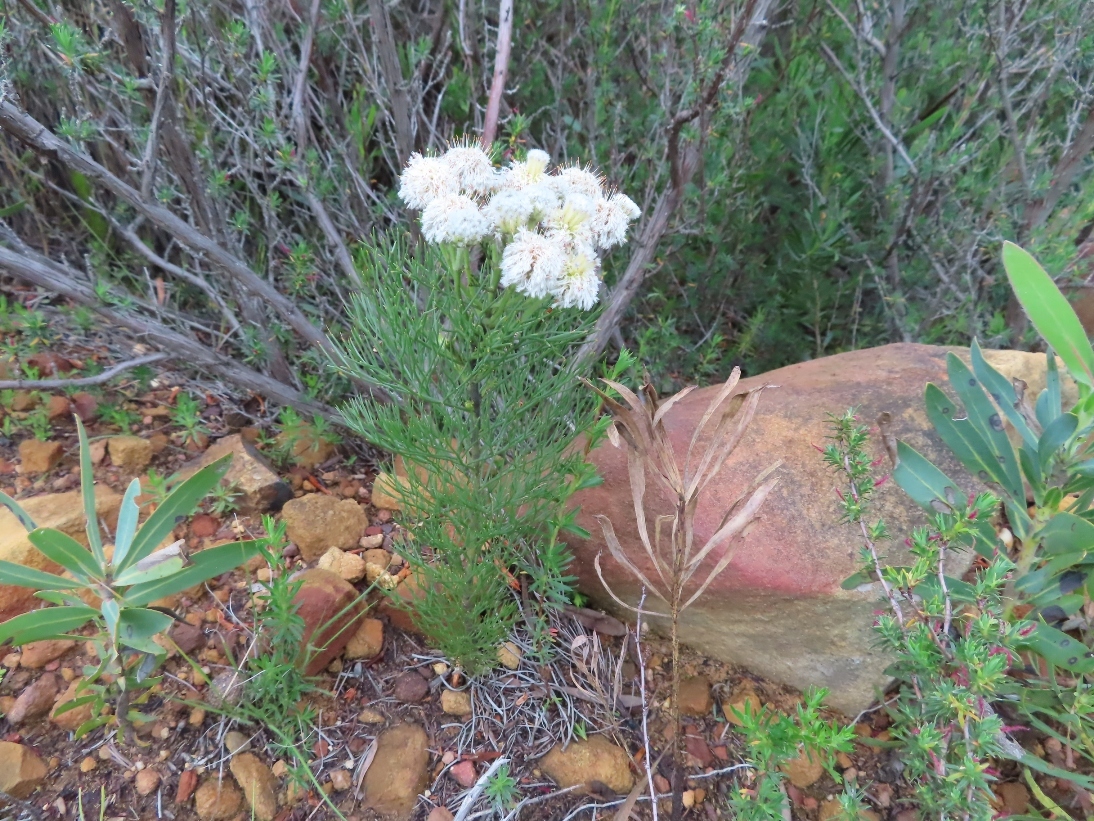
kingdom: Plantae
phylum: Tracheophyta
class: Magnoliopsida
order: Proteales
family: Proteaceae
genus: Serruria
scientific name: Serruria kraussii
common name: Snowball spiderhead
